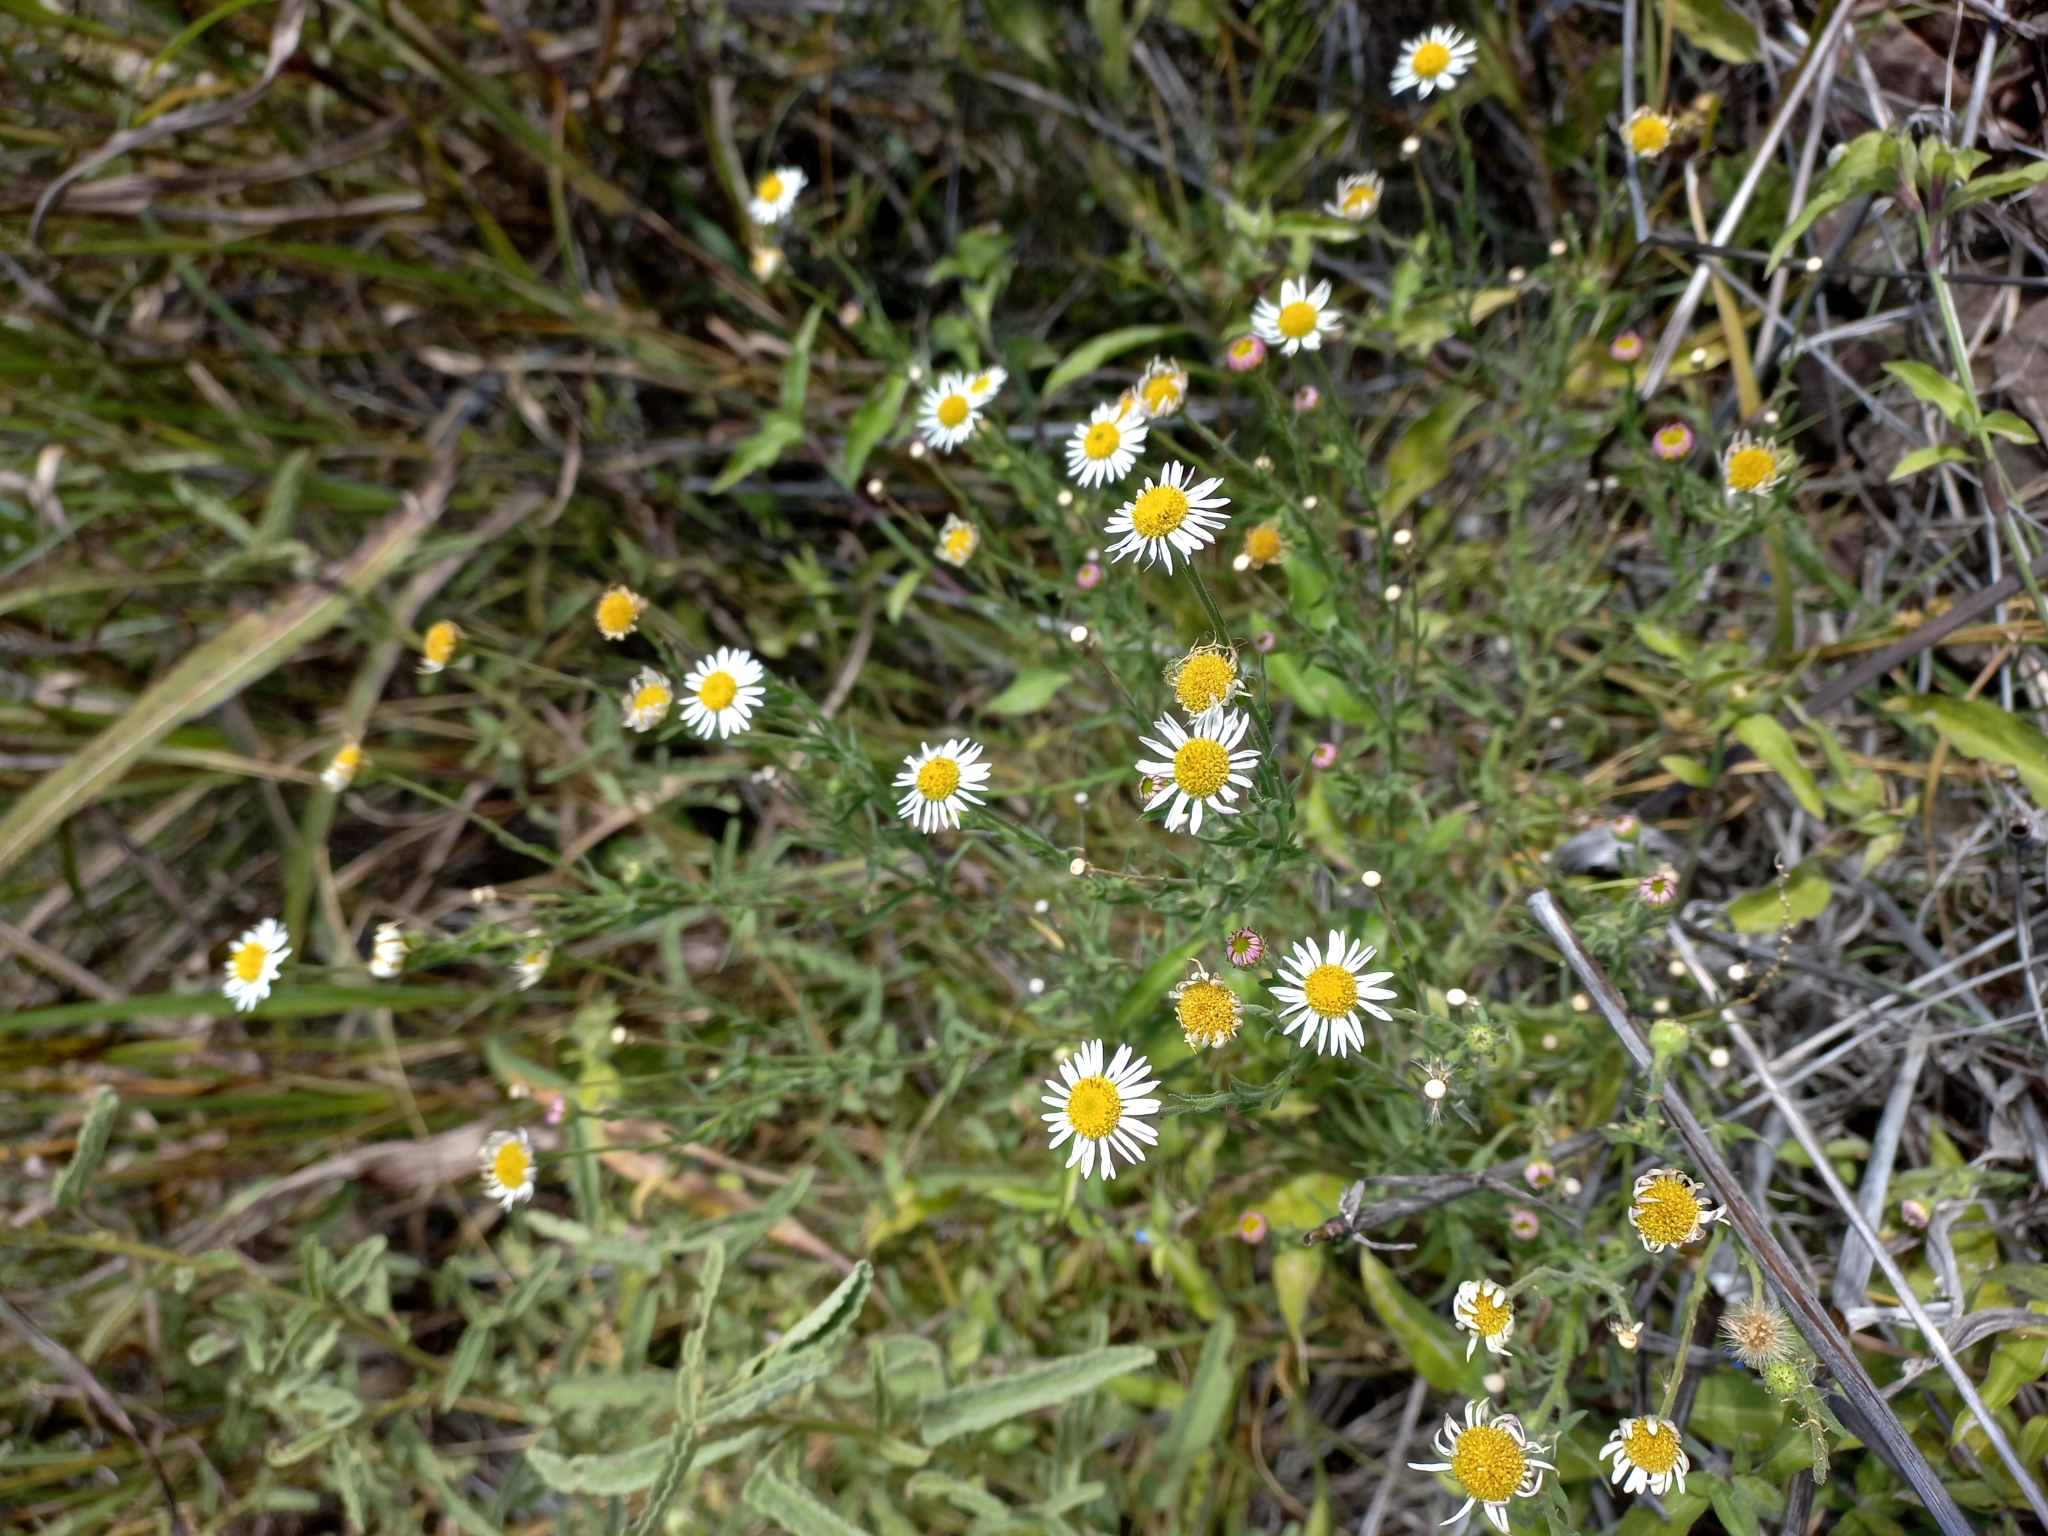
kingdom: Plantae
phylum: Tracheophyta
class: Magnoliopsida
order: Asterales
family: Asteraceae
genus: Hysterionica
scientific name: Hysterionica resinosa
